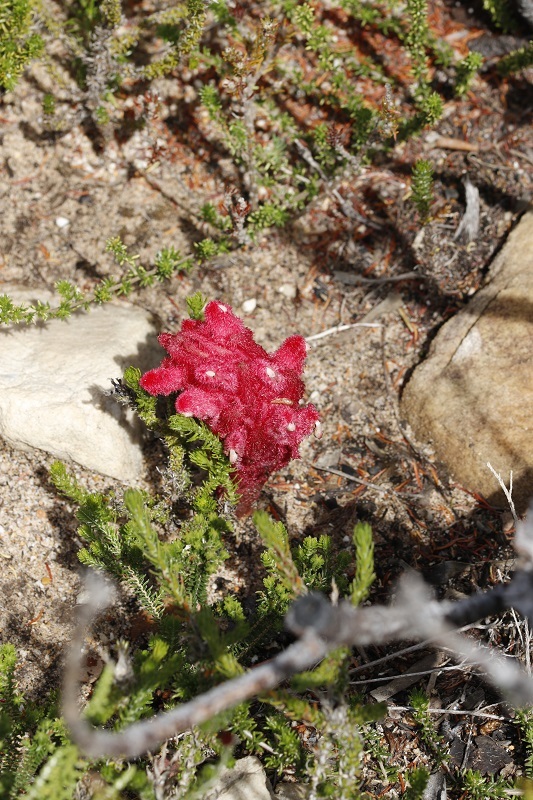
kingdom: Plantae
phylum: Tracheophyta
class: Magnoliopsida
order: Lamiales
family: Orobanchaceae
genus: Hyobanche
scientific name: Hyobanche sanguinea
